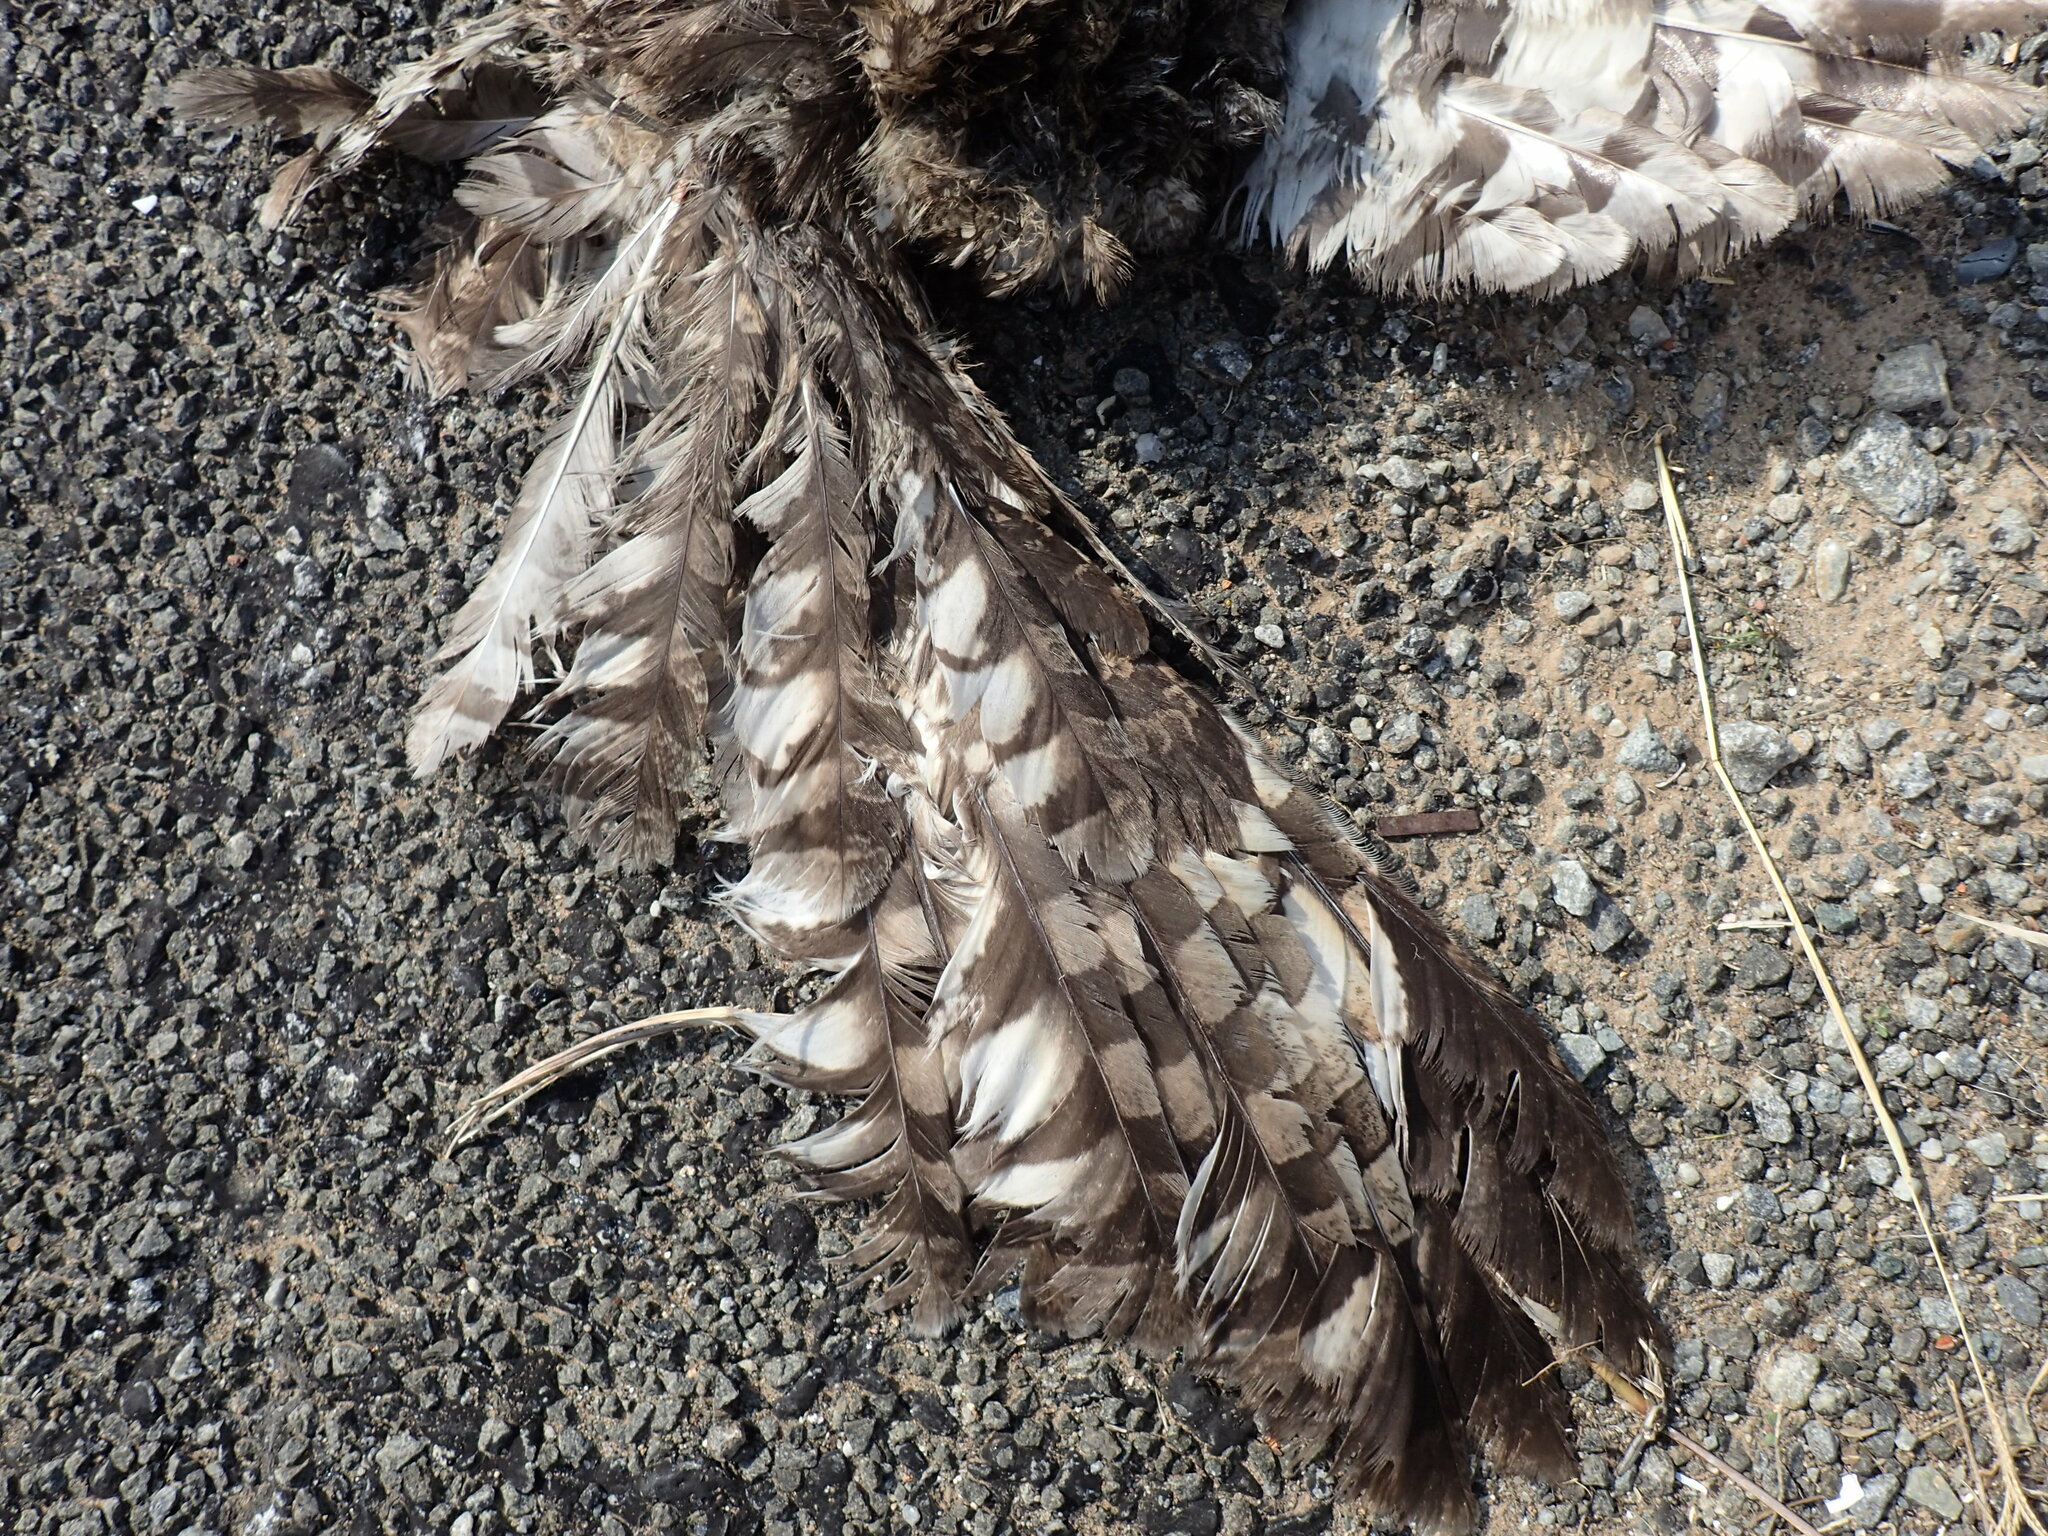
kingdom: Animalia
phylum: Chordata
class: Aves
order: Strigiformes
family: Strigidae
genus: Bubo
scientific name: Bubo africanus
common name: Spotted eagle-owl
